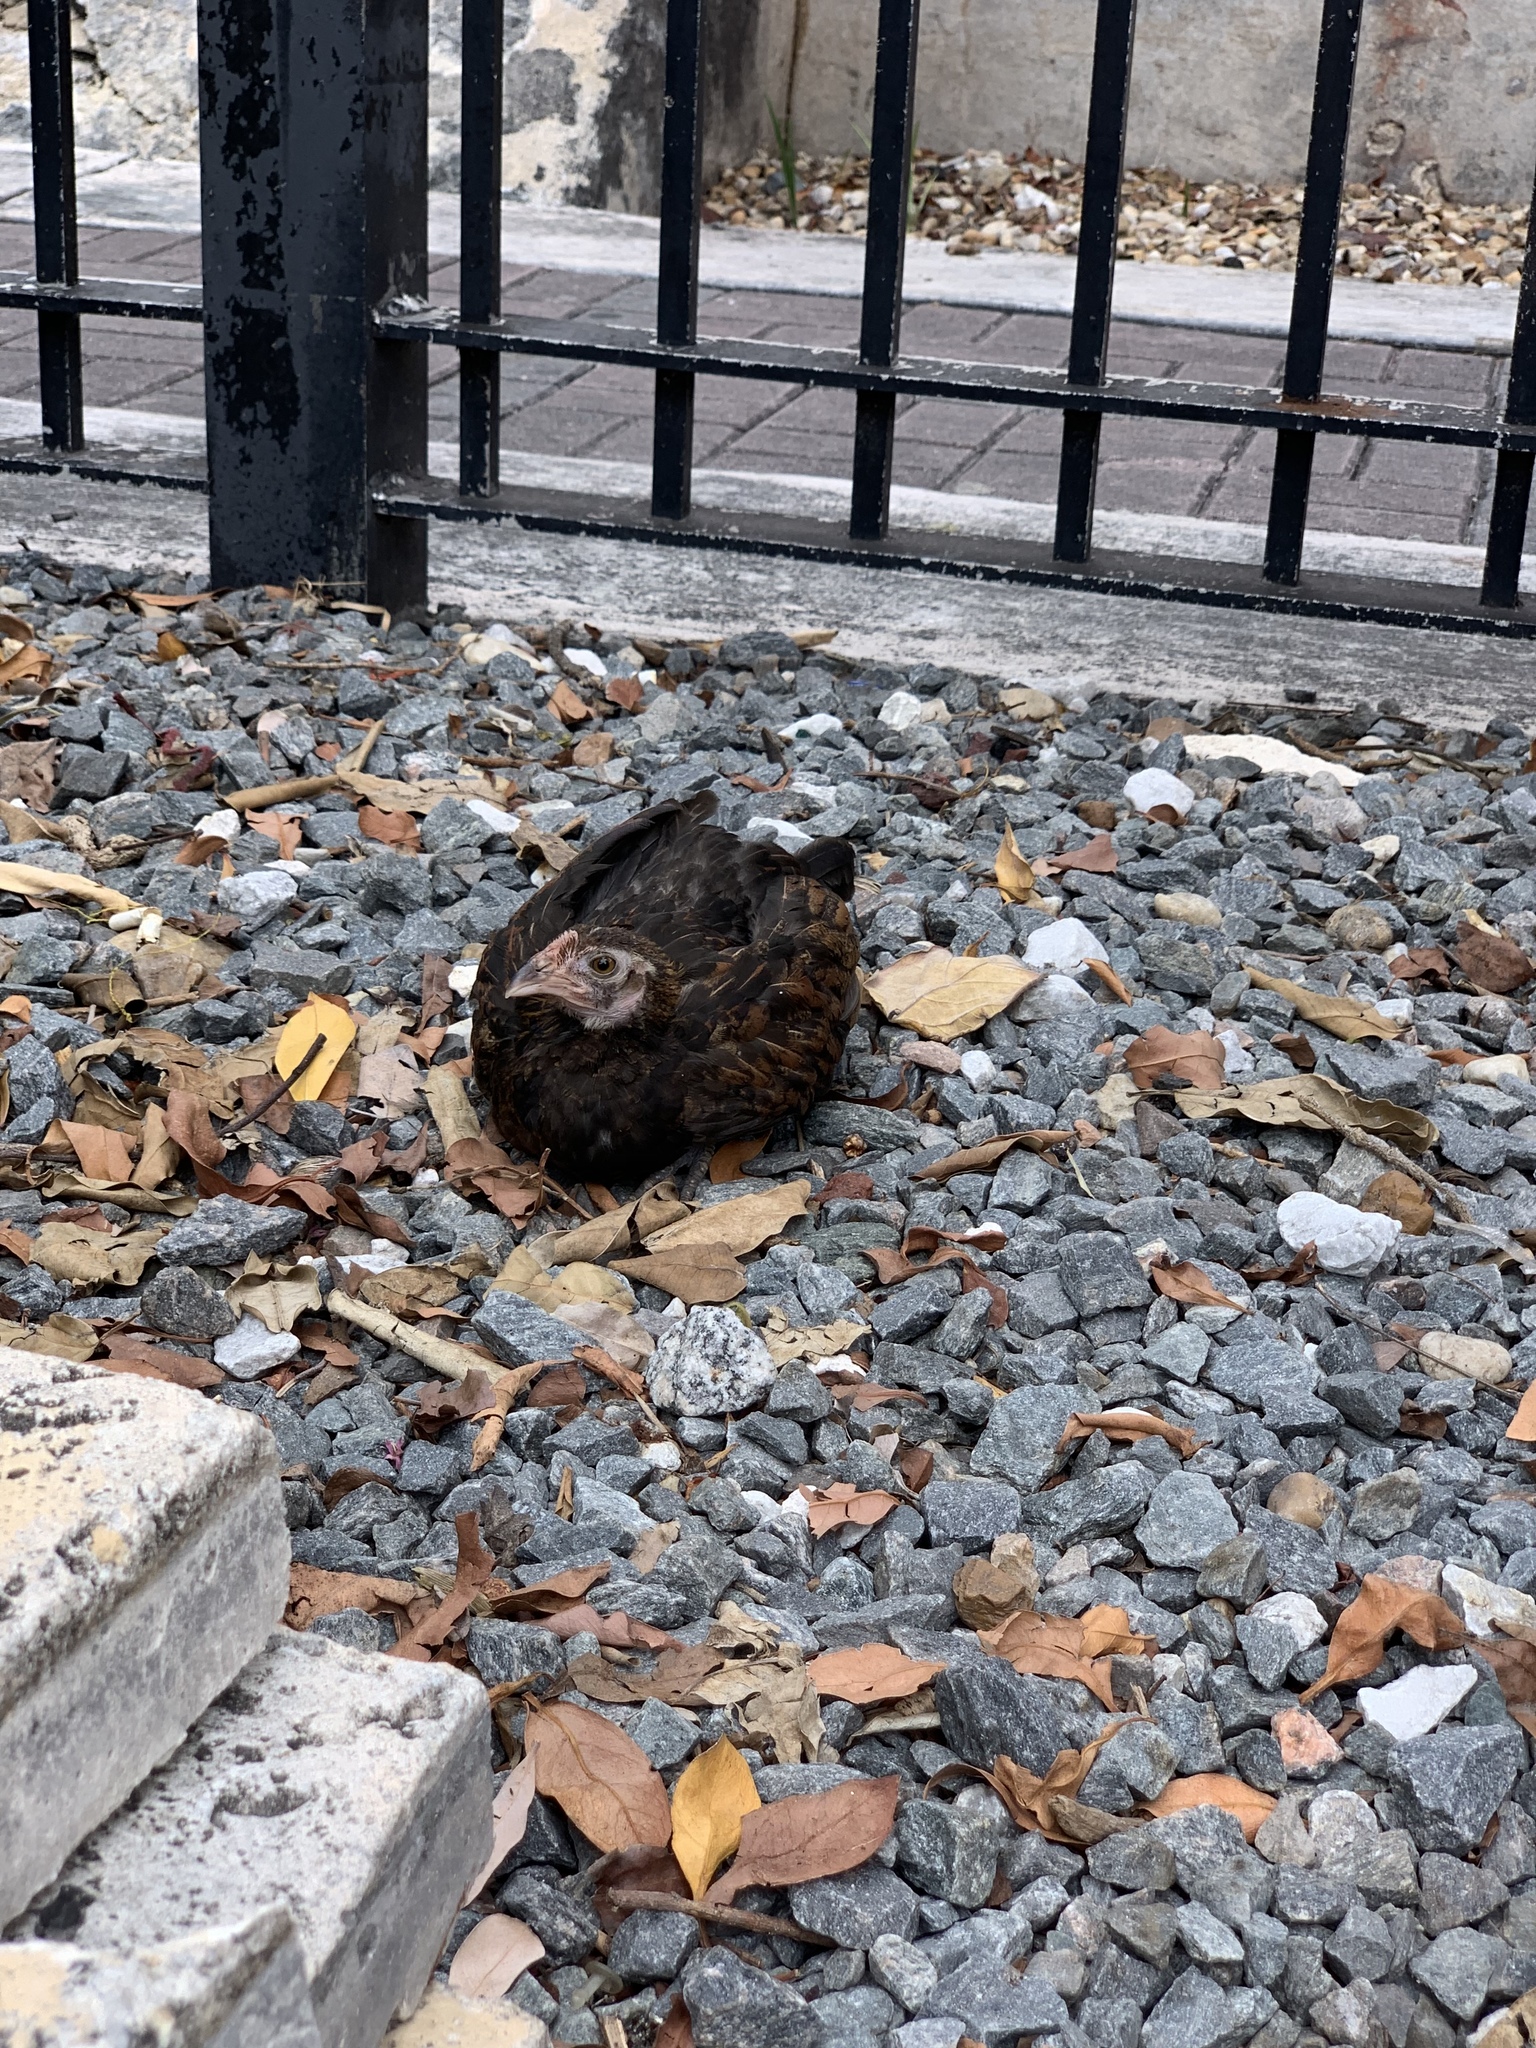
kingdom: Animalia
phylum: Chordata
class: Aves
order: Galliformes
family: Phasianidae
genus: Gallus
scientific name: Gallus gallus
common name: Red junglefowl
